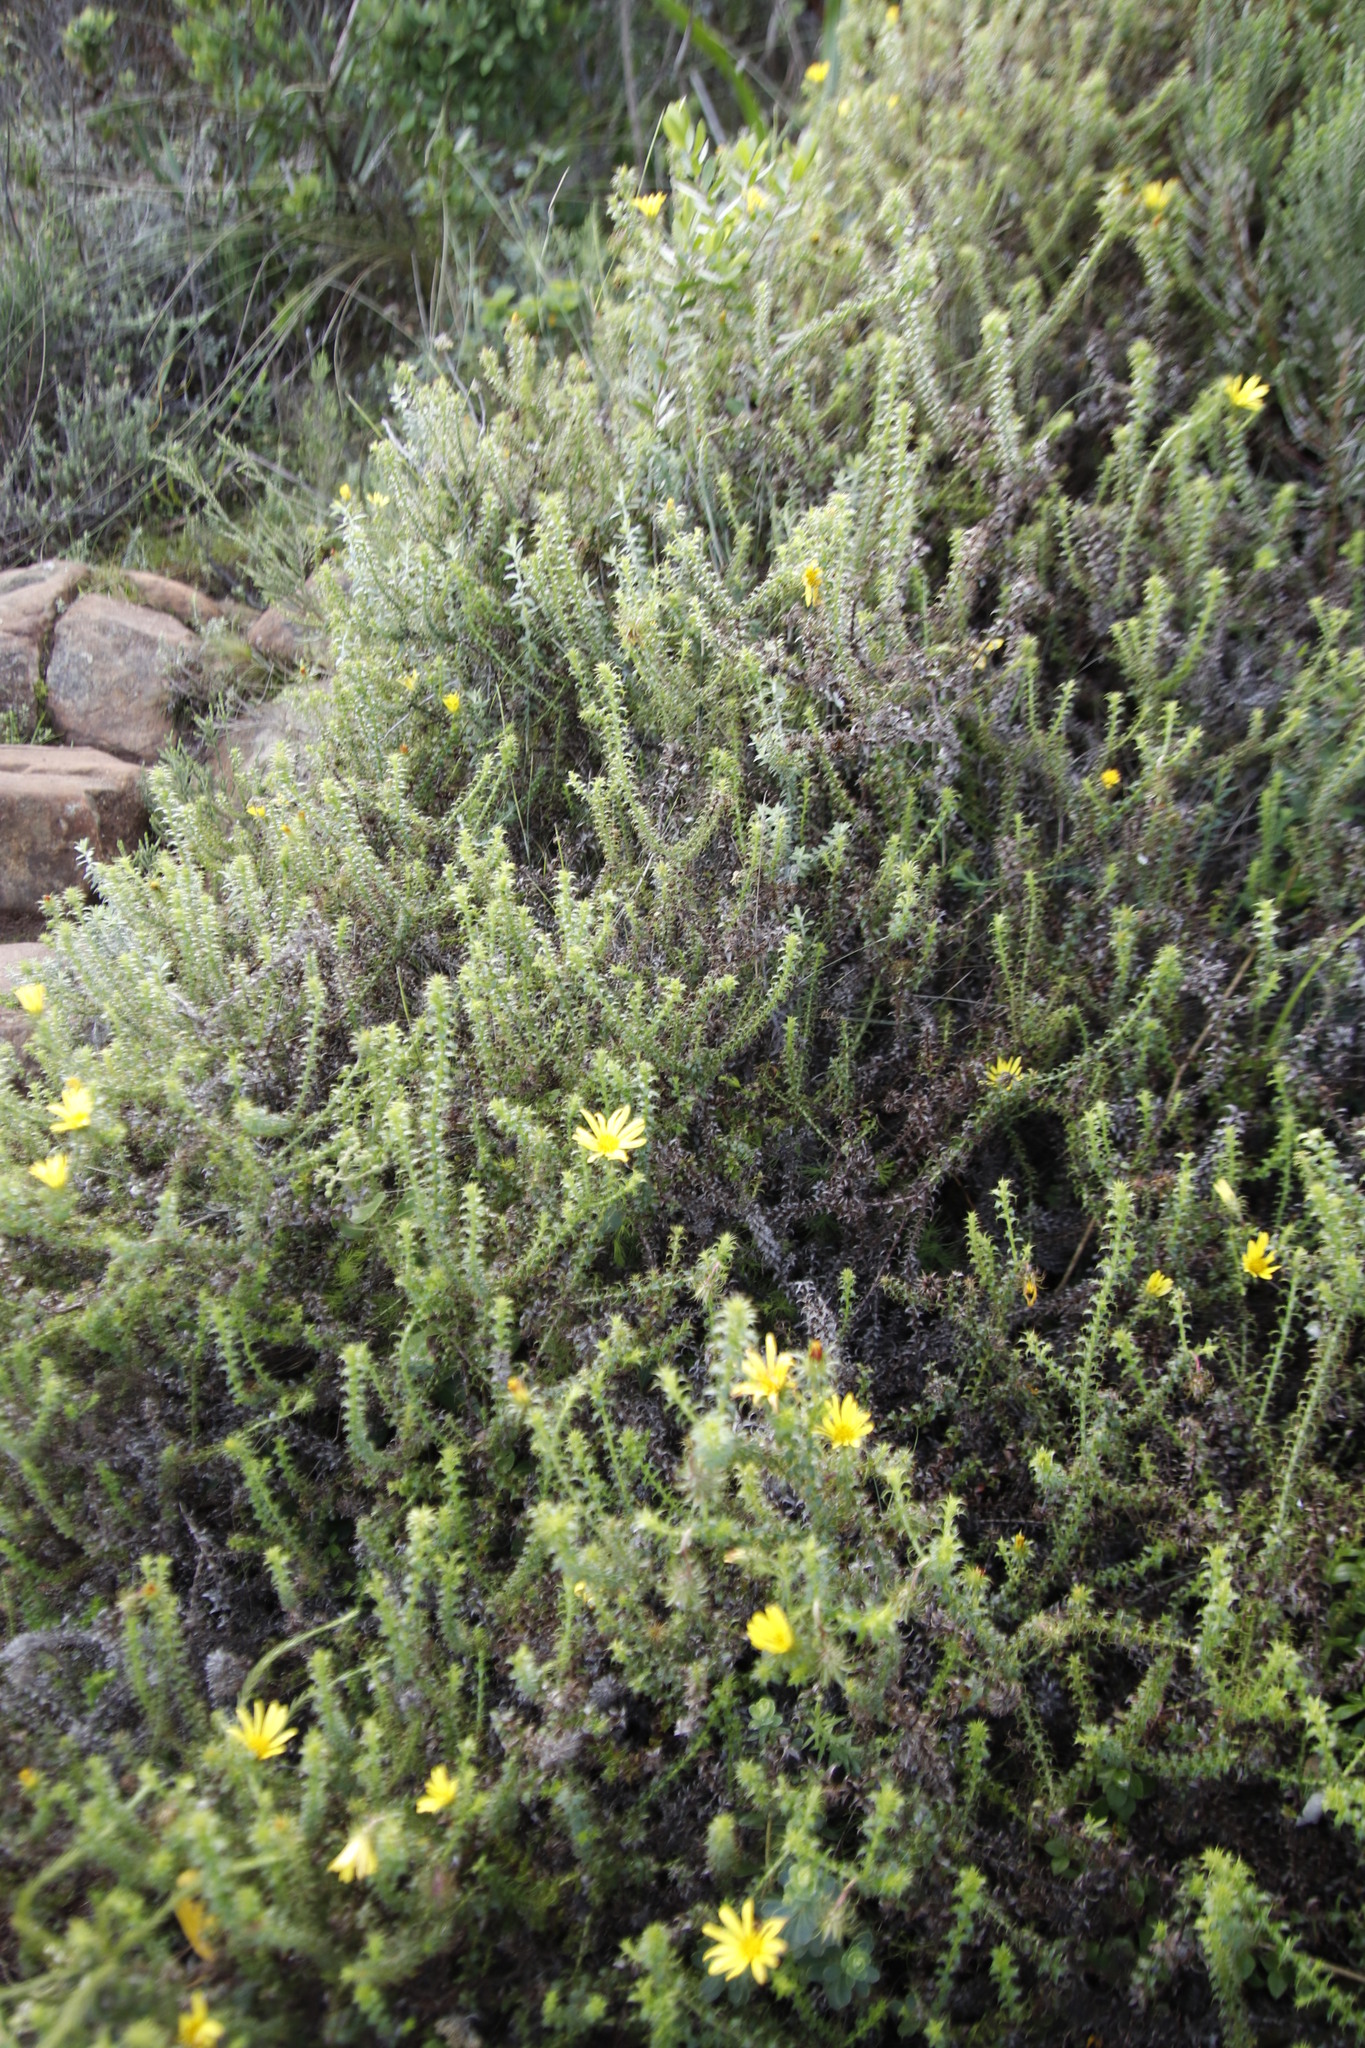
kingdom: Plantae
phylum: Tracheophyta
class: Magnoliopsida
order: Asterales
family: Asteraceae
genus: Cullumia
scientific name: Cullumia setosa
